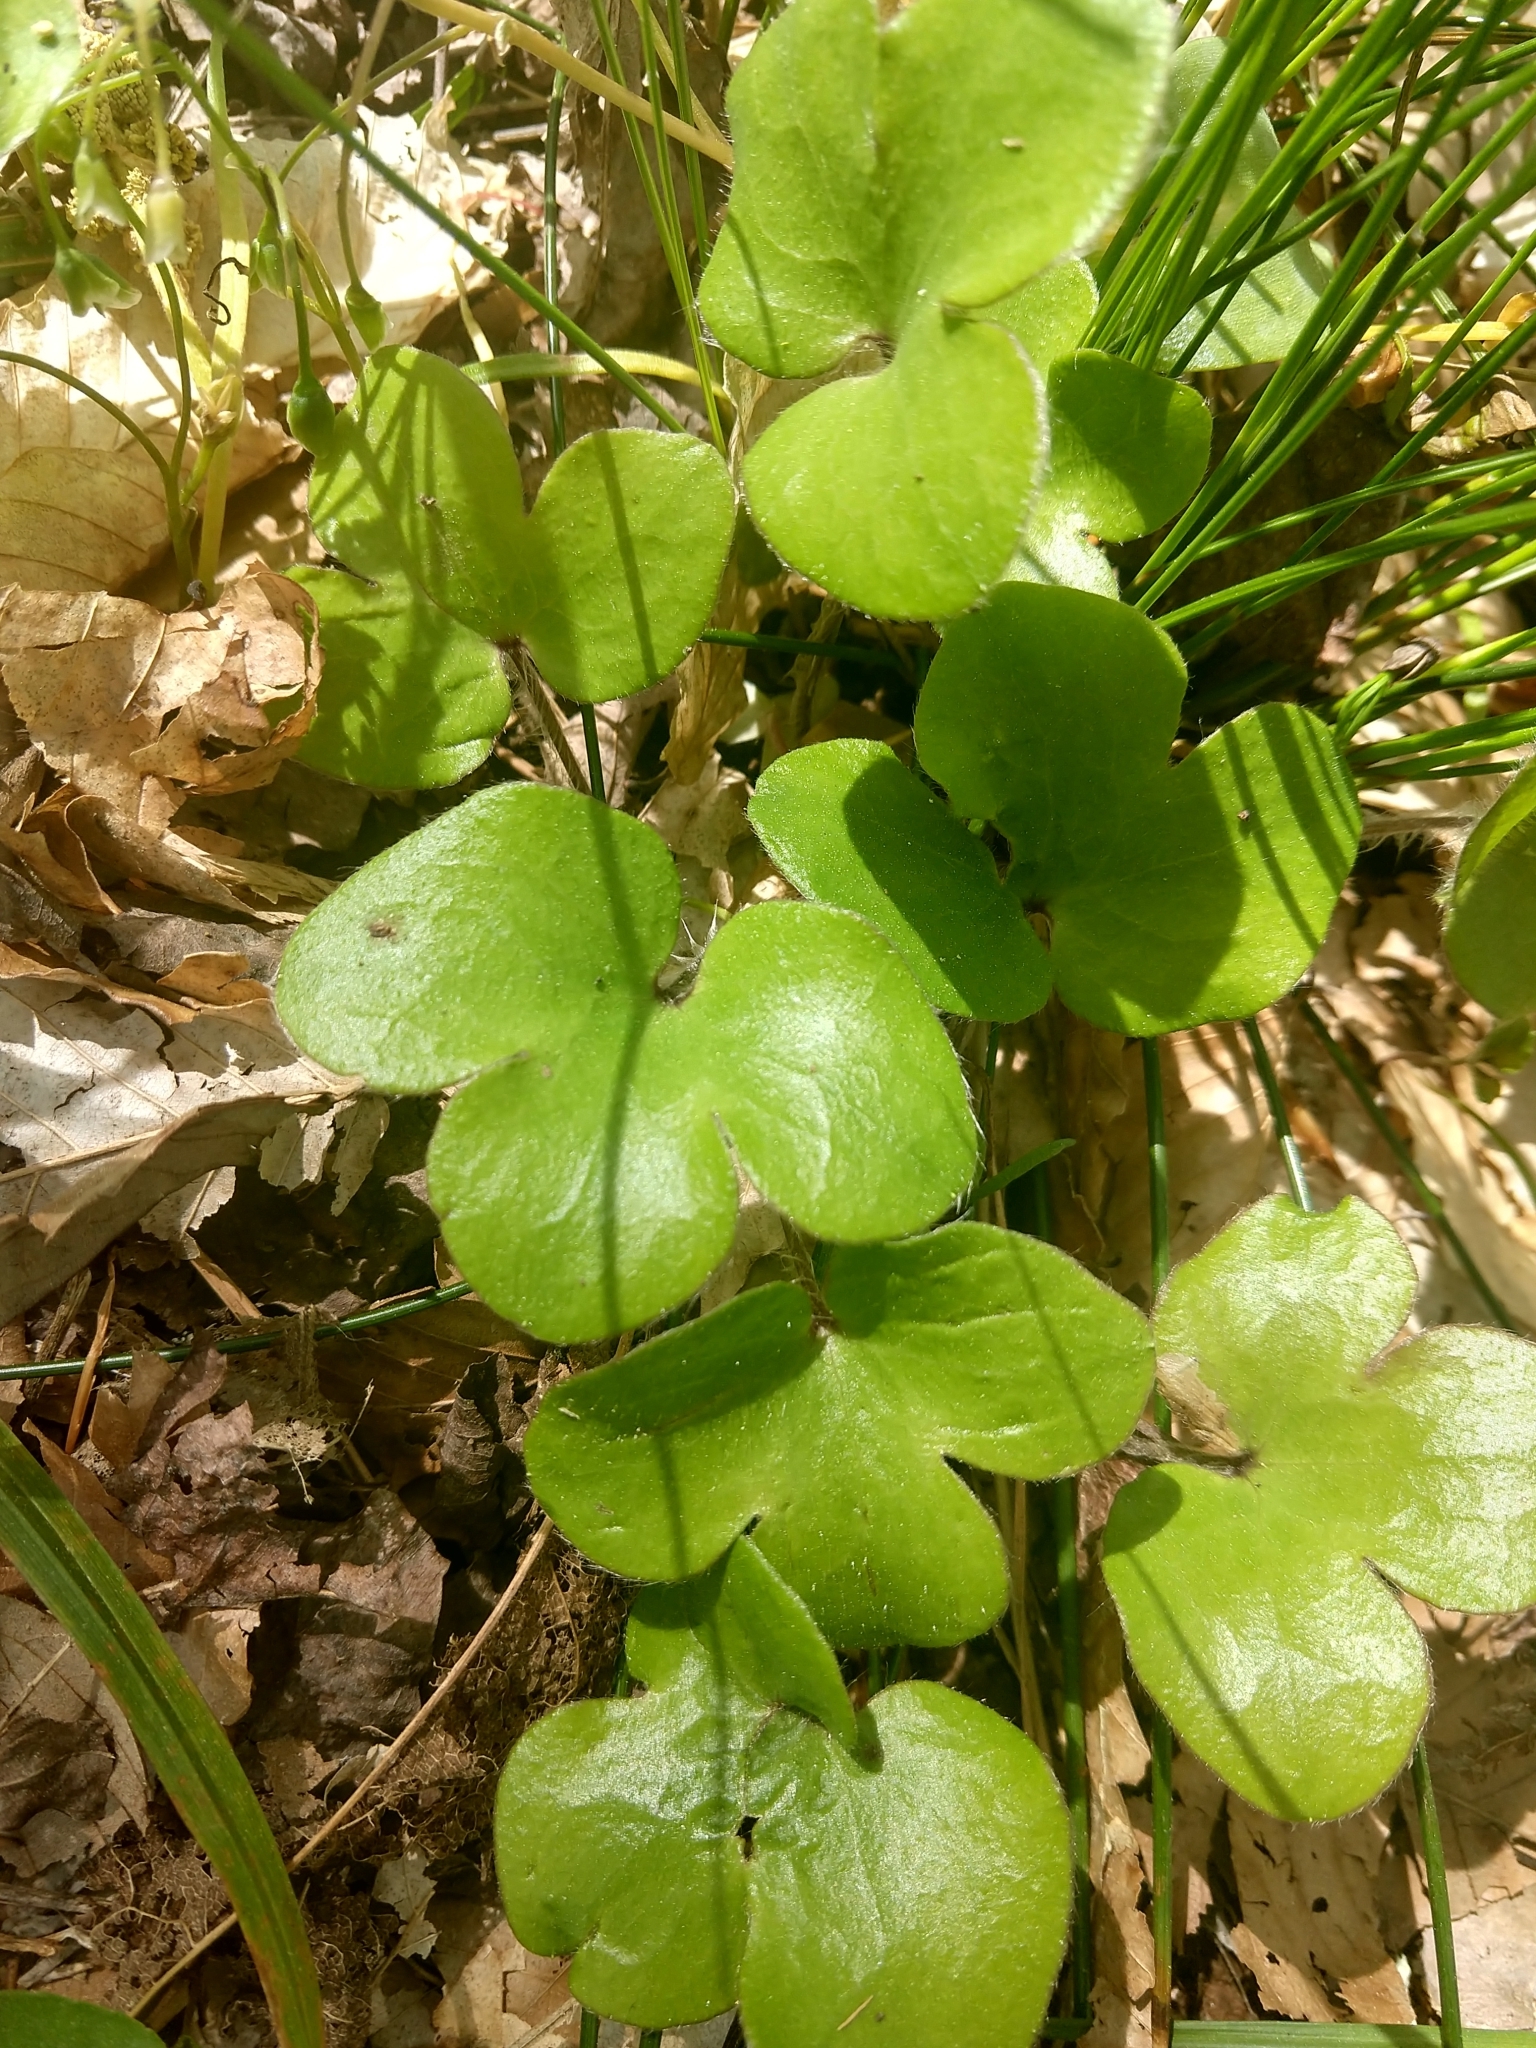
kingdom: Plantae
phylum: Tracheophyta
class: Magnoliopsida
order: Ranunculales
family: Ranunculaceae
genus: Hepatica
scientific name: Hepatica americana
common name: American hepatica
